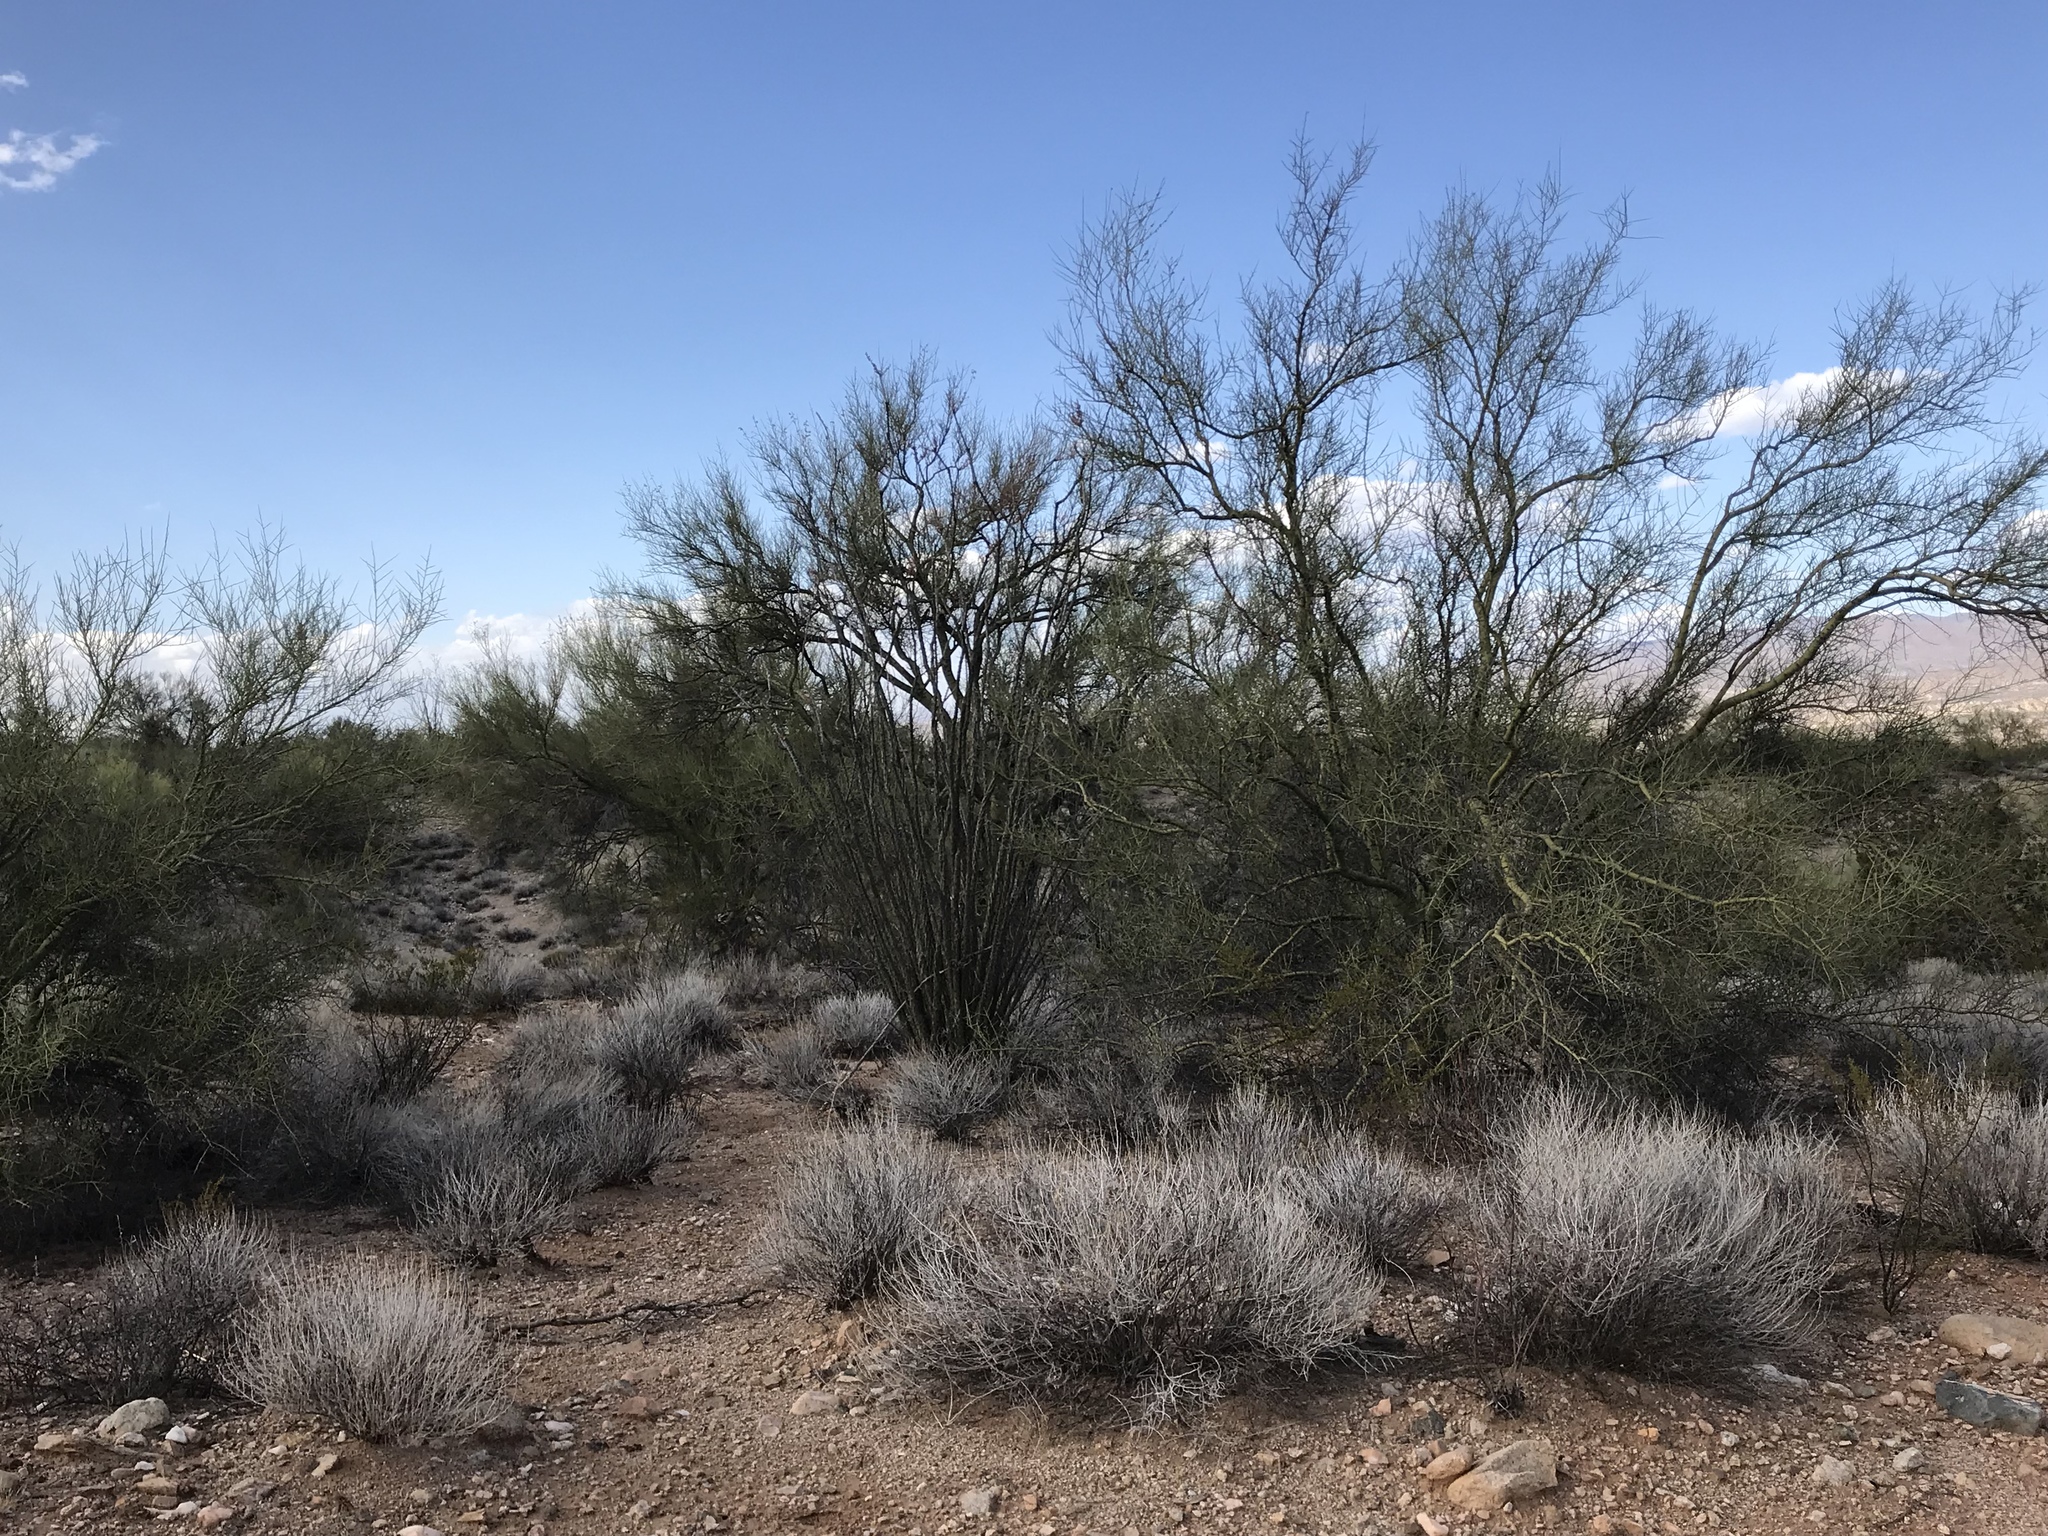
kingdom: Plantae
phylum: Tracheophyta
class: Magnoliopsida
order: Fabales
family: Fabaceae
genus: Parkinsonia
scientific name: Parkinsonia microphylla
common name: Yellow paloverde
